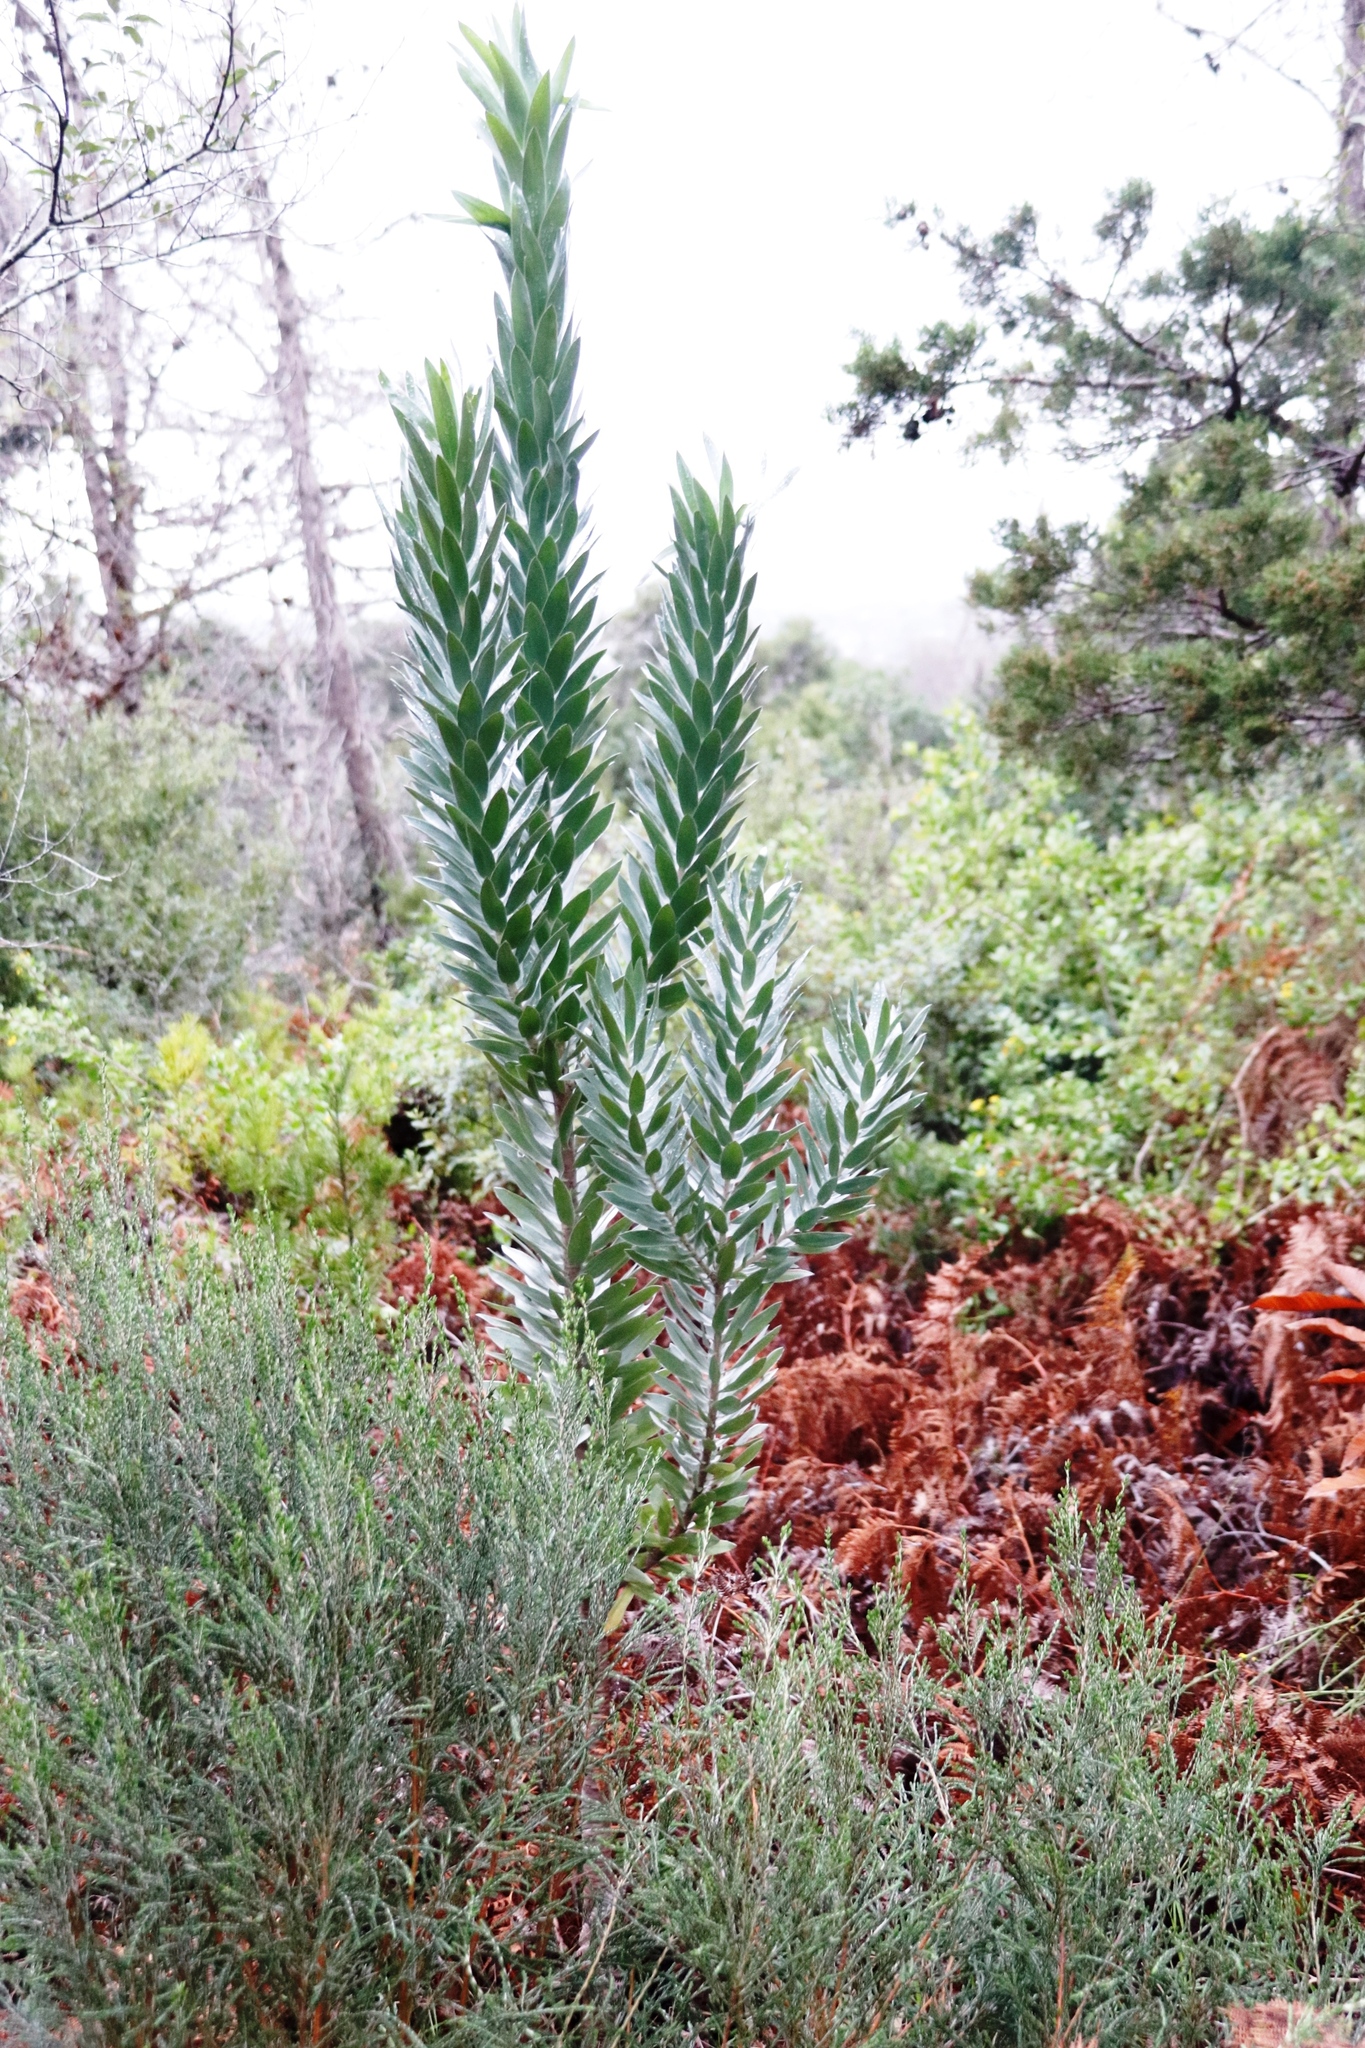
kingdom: Plantae
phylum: Tracheophyta
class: Magnoliopsida
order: Proteales
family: Proteaceae
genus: Leucadendron
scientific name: Leucadendron argenteum
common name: Cape silver tree
